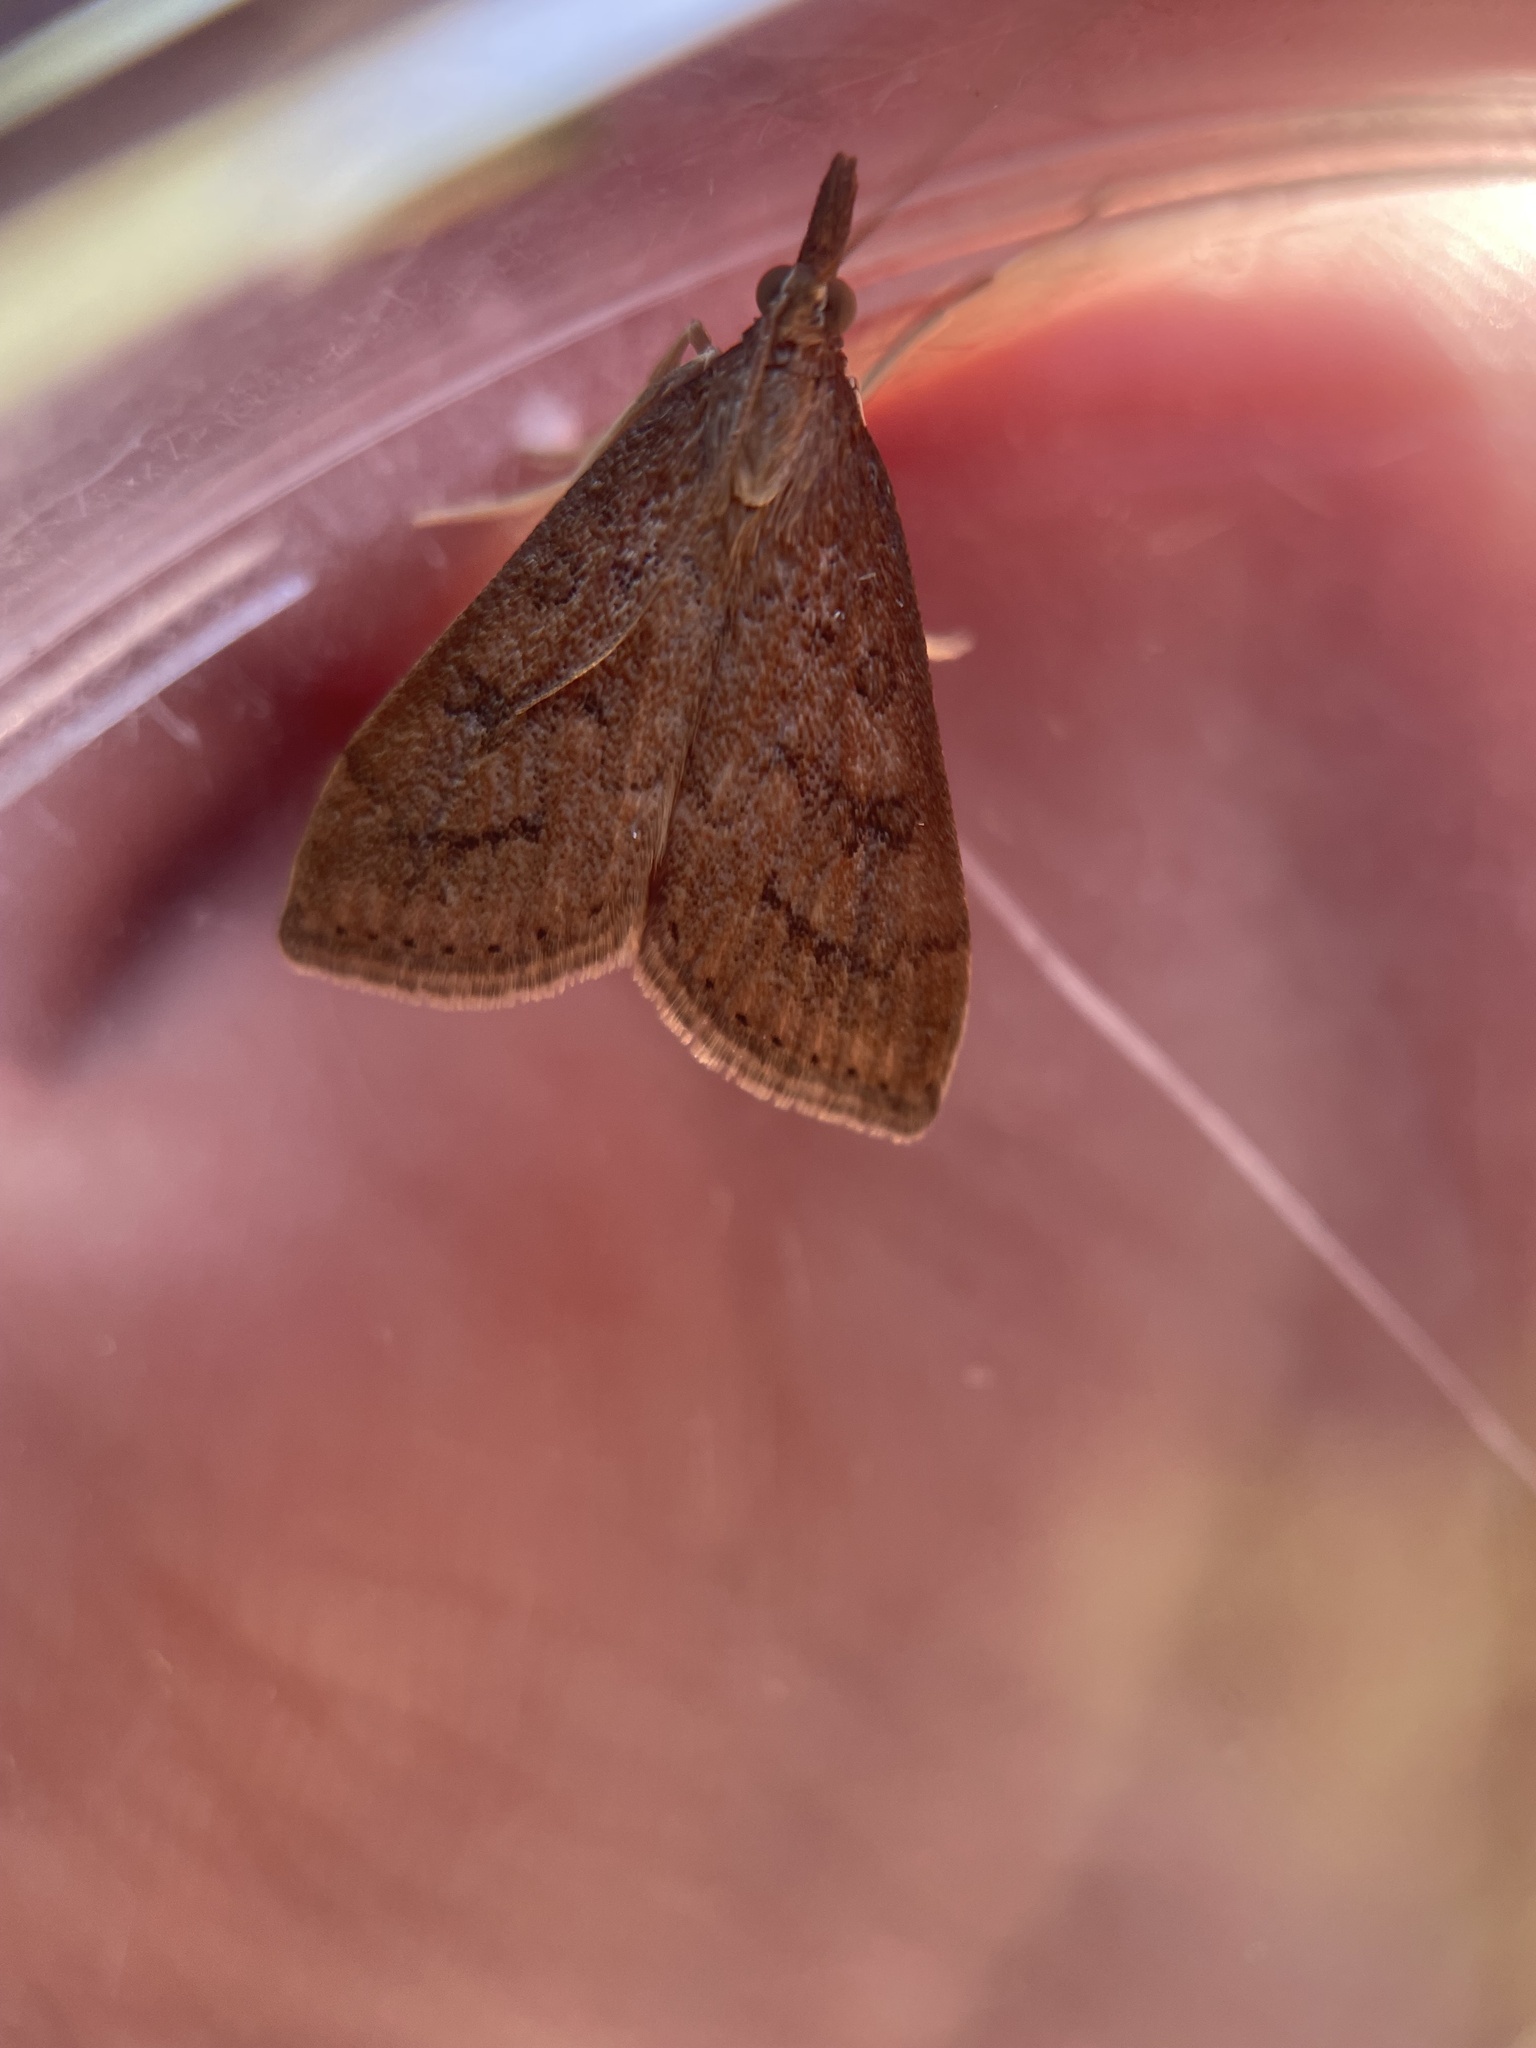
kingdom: Animalia
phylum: Arthropoda
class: Insecta
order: Lepidoptera
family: Crambidae
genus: Udea
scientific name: Udea rubigalis
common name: Celery leaftier moth
